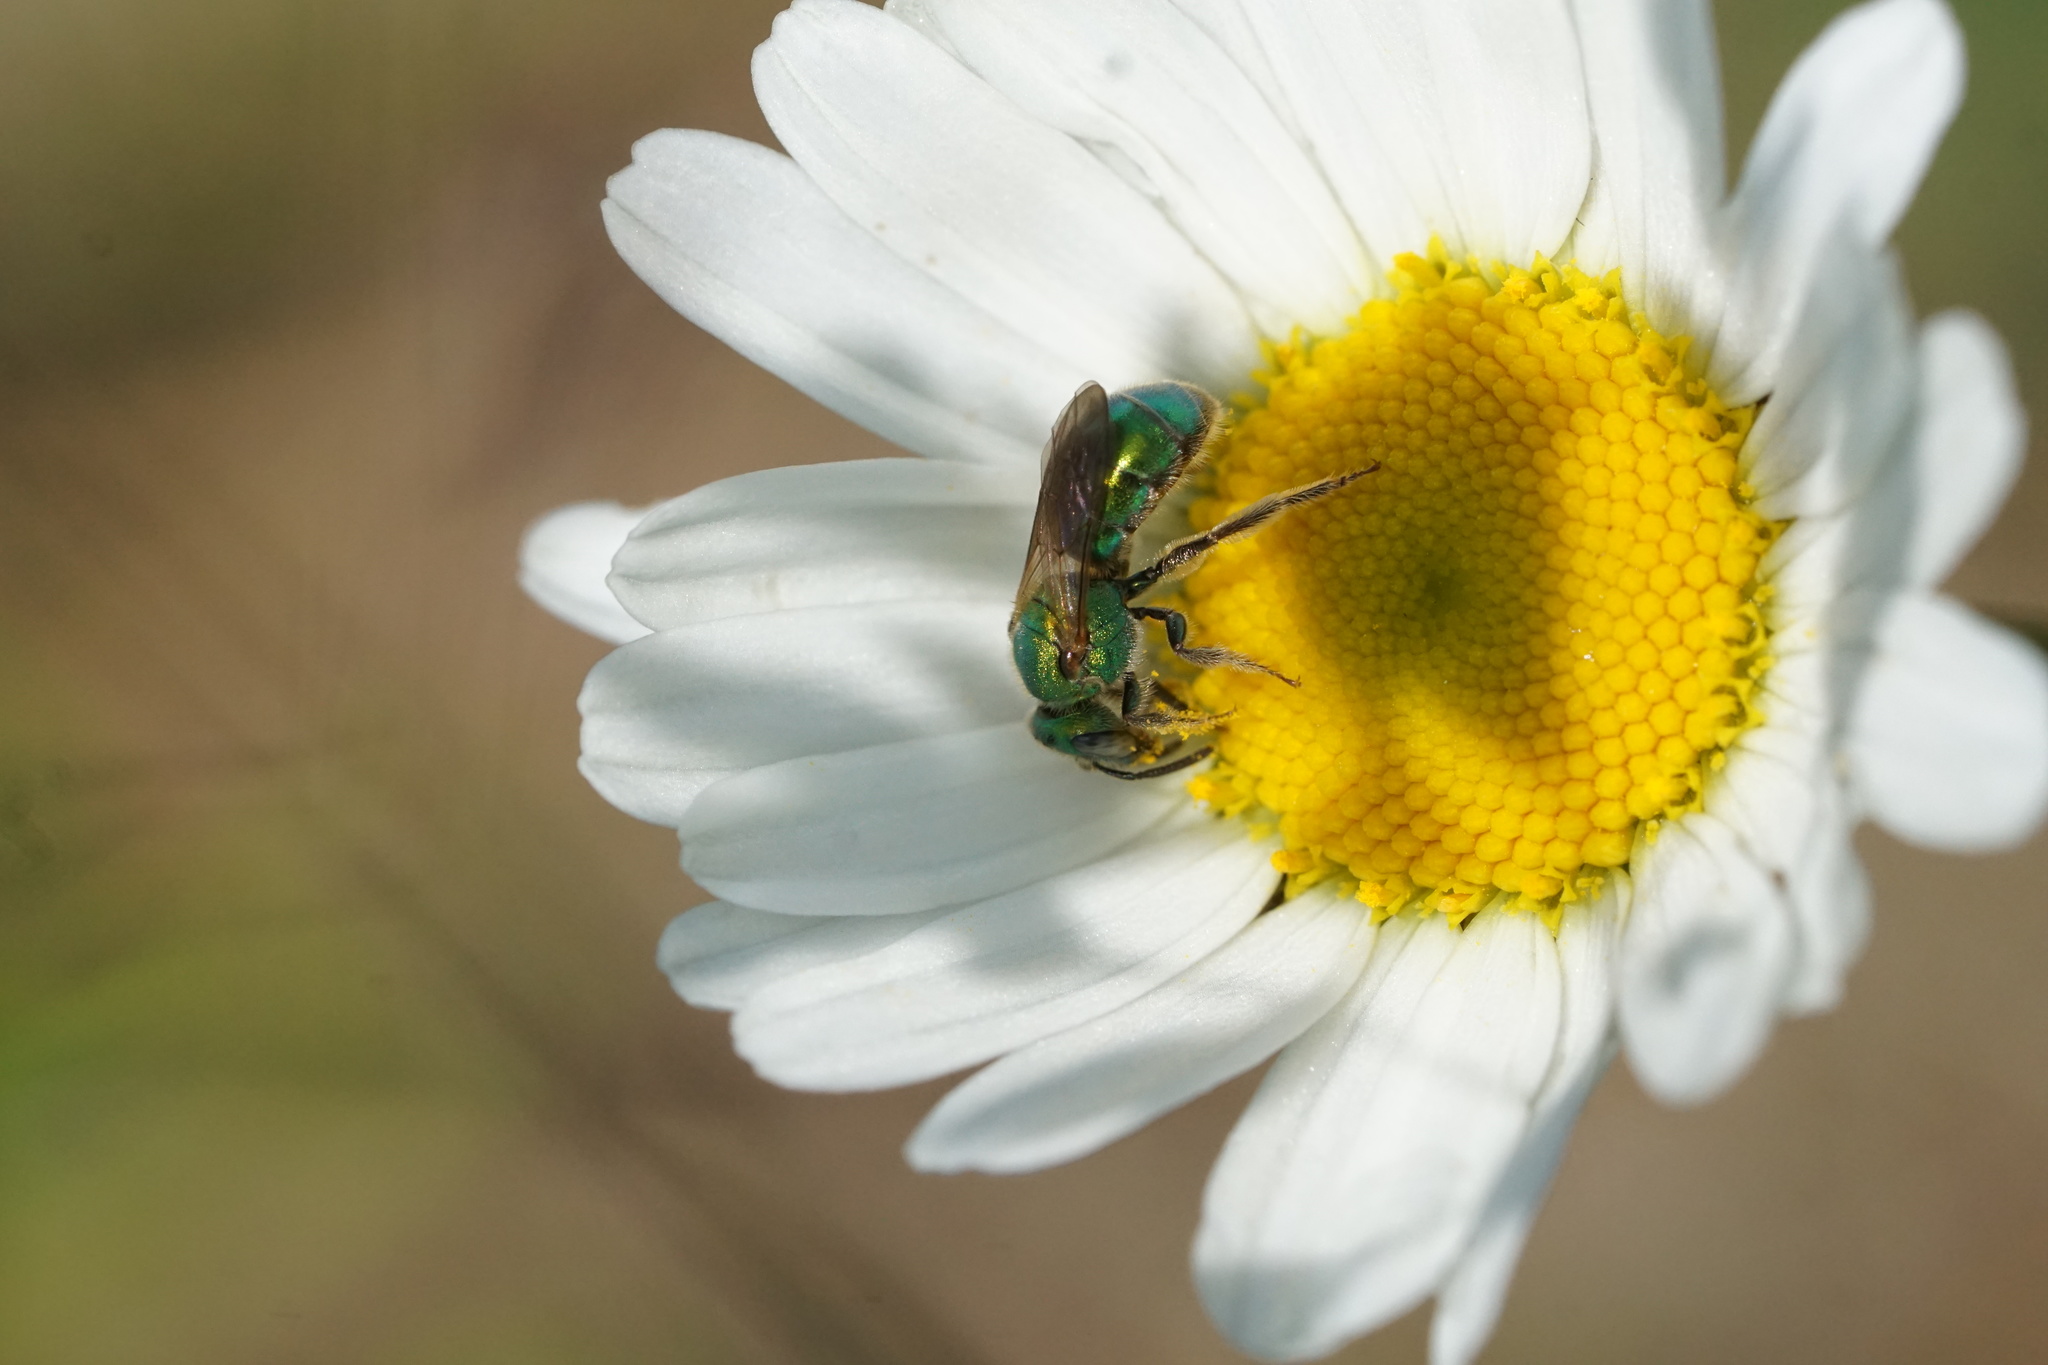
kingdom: Animalia
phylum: Arthropoda
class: Insecta
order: Hymenoptera
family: Halictidae
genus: Augochlorella
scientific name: Augochlorella aurata
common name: Golden sweat bee
